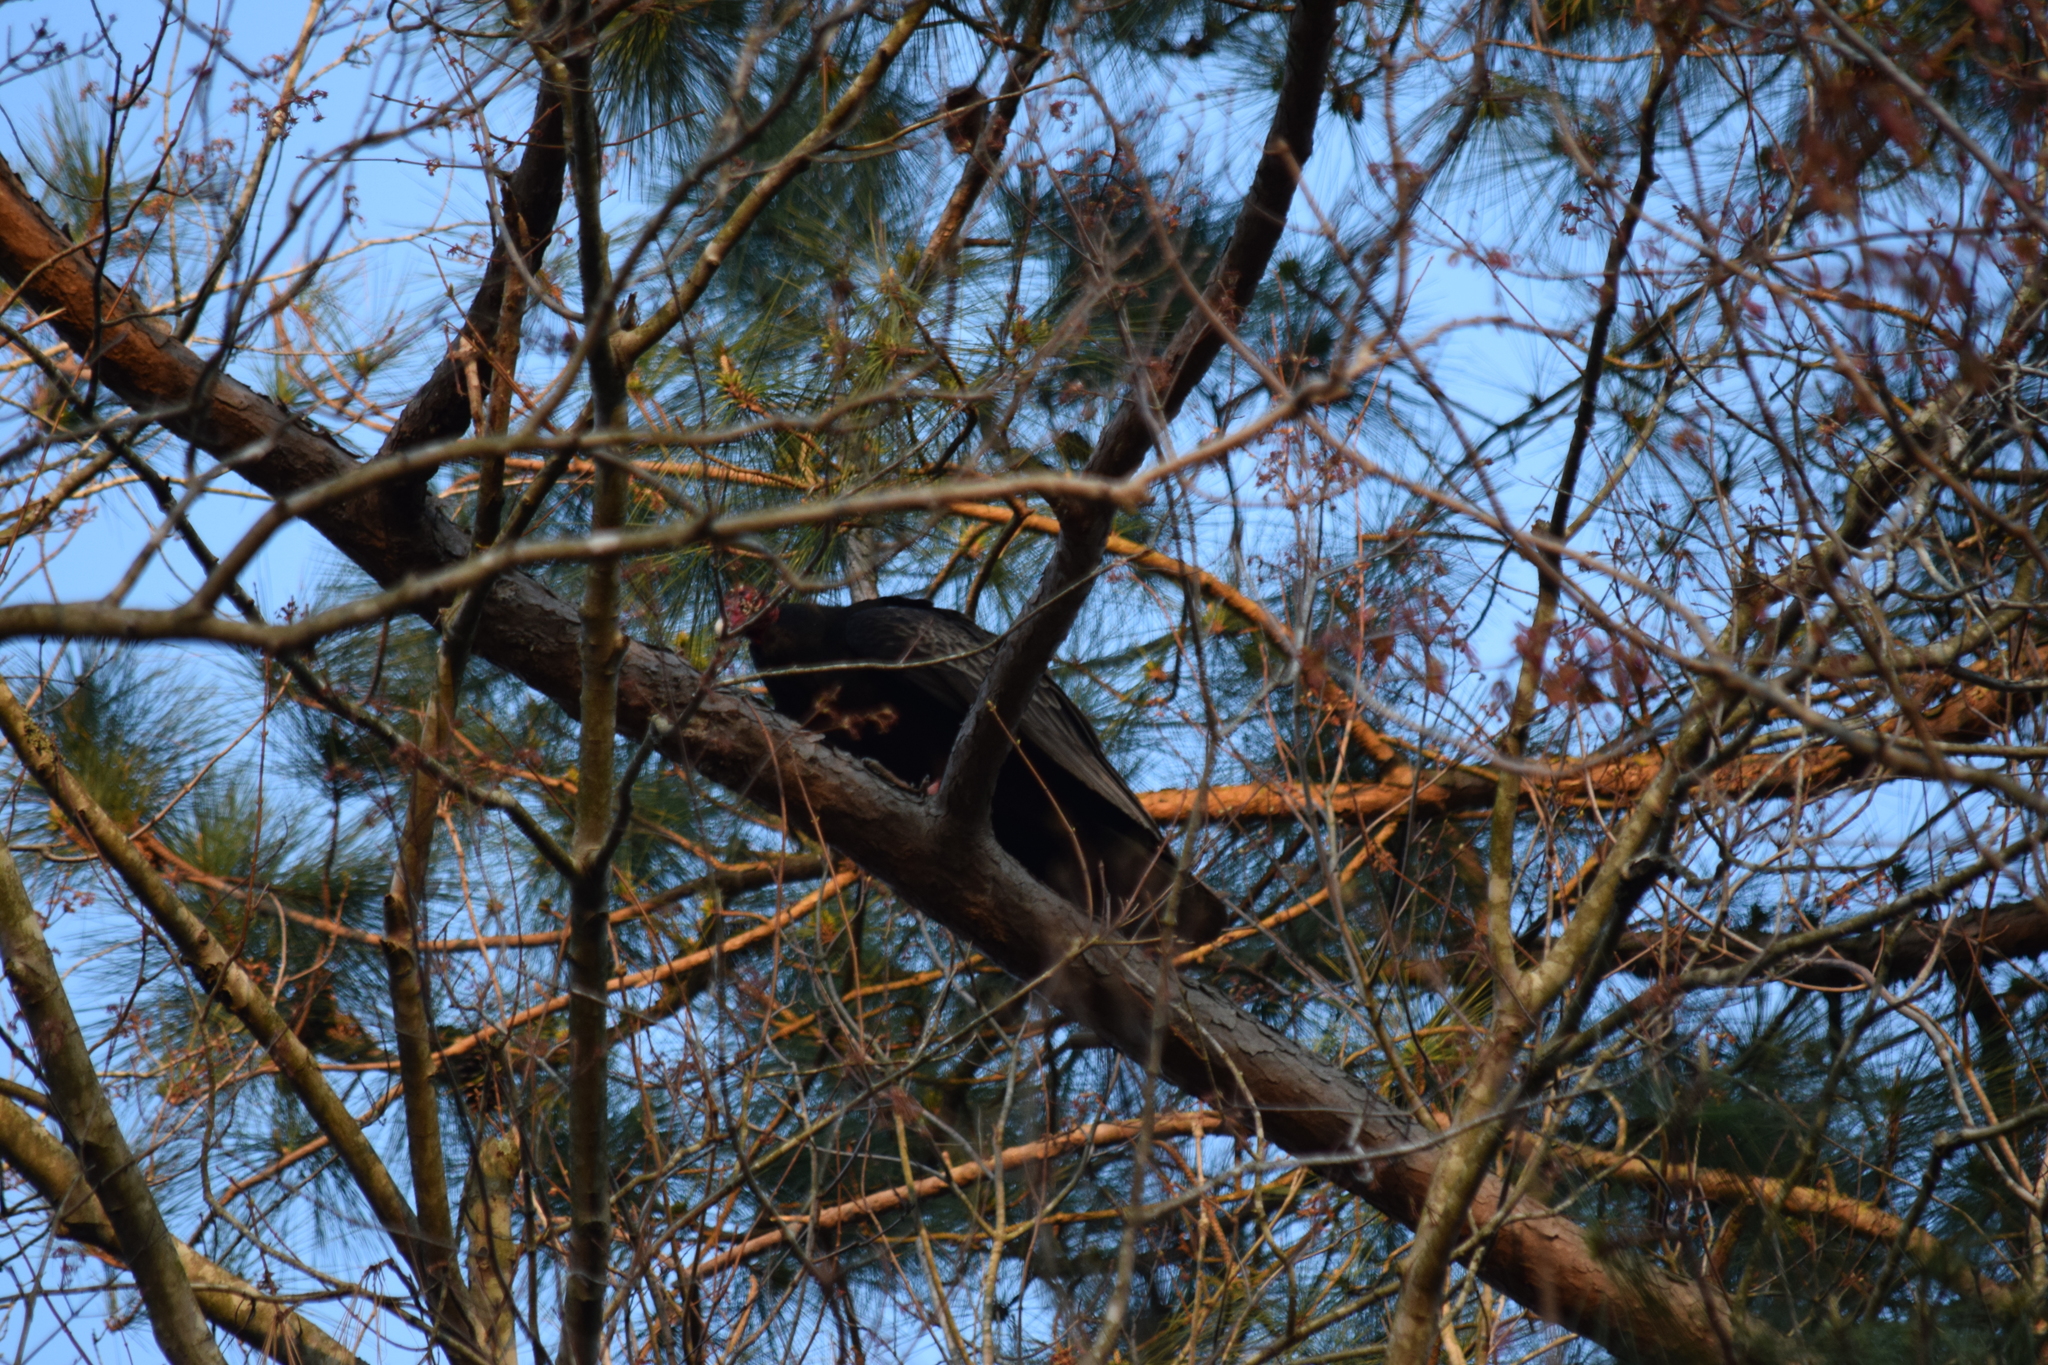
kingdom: Animalia
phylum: Chordata
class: Aves
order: Accipitriformes
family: Cathartidae
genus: Cathartes
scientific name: Cathartes aura
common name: Turkey vulture
